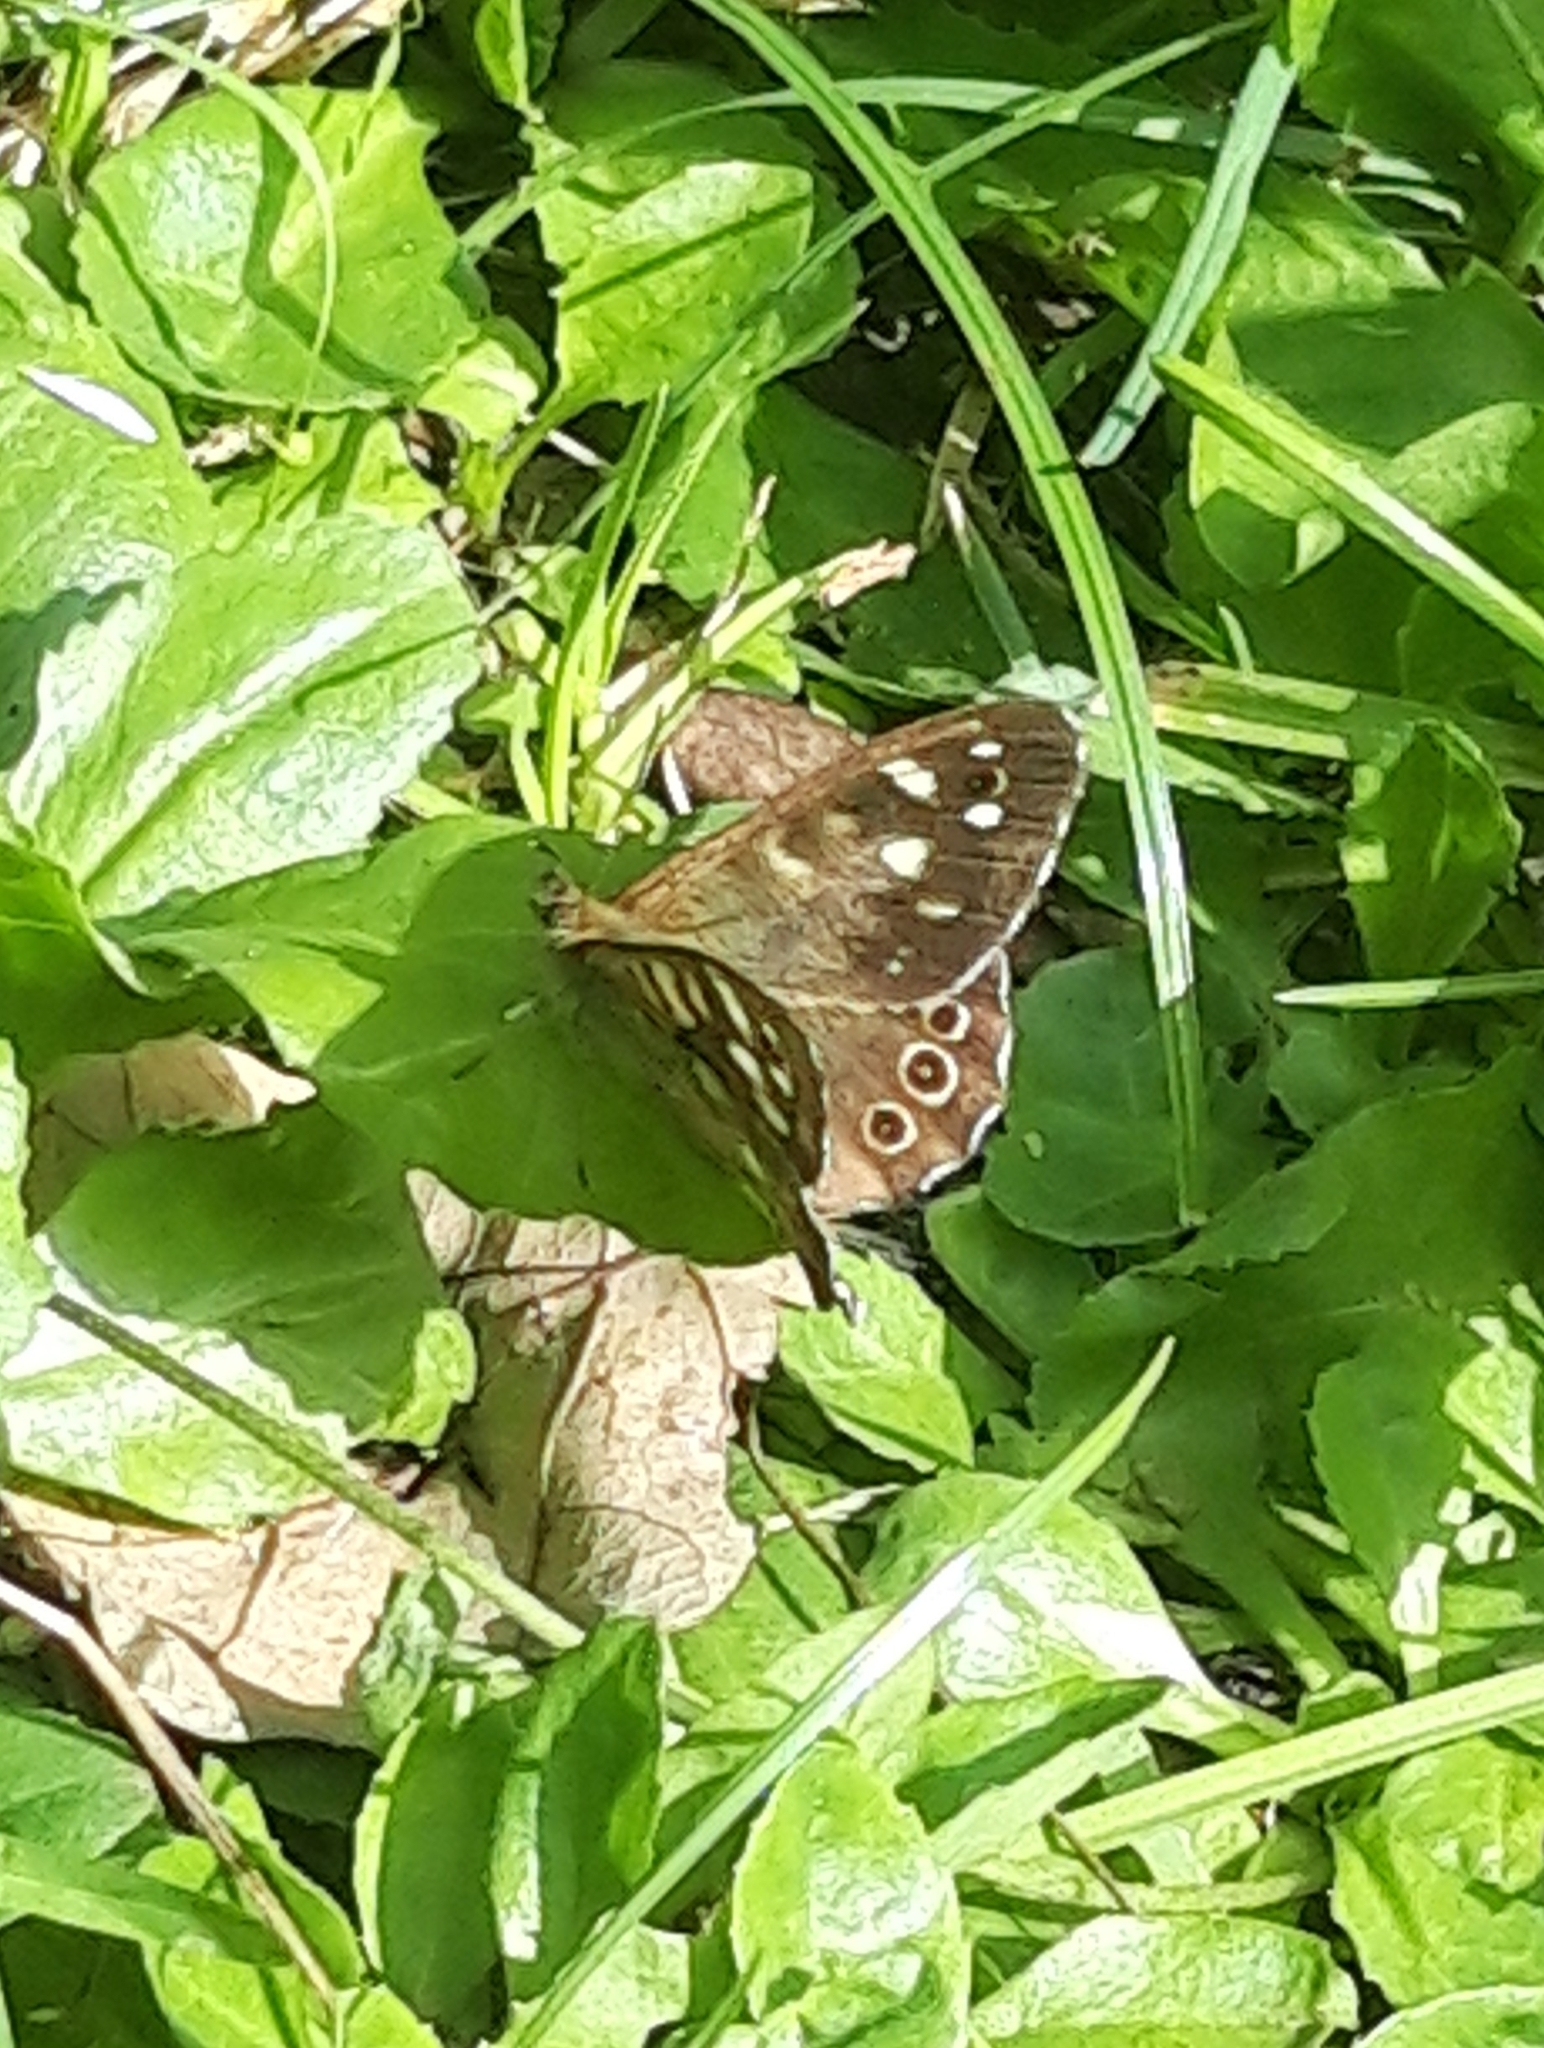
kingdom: Animalia
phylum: Arthropoda
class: Insecta
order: Lepidoptera
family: Nymphalidae
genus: Pararge
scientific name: Pararge aegeria
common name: Speckled wood
